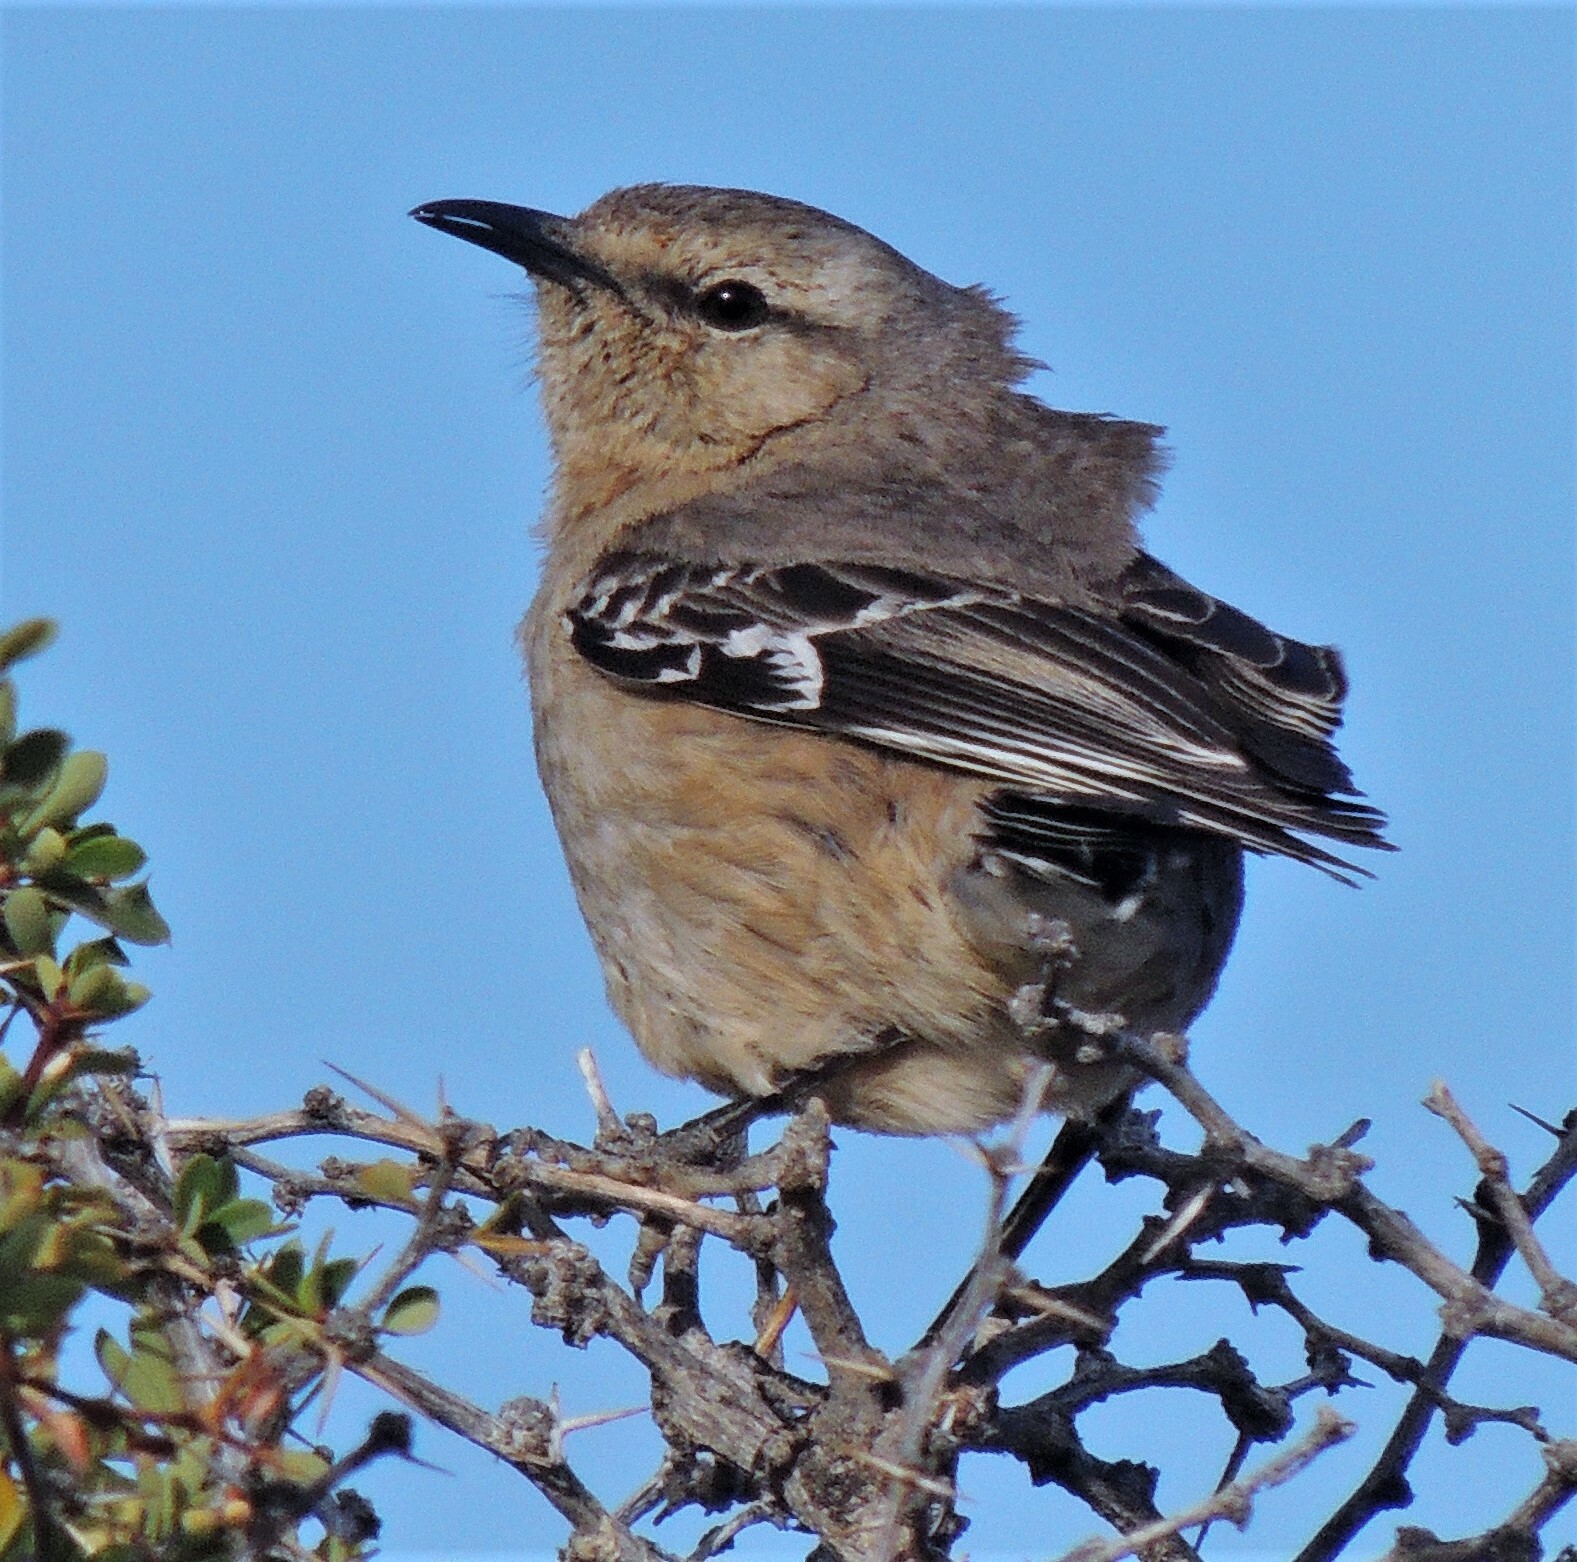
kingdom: Animalia
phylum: Chordata
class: Aves
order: Passeriformes
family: Mimidae
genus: Mimus
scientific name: Mimus patagonicus
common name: Patagonian mockingbird
